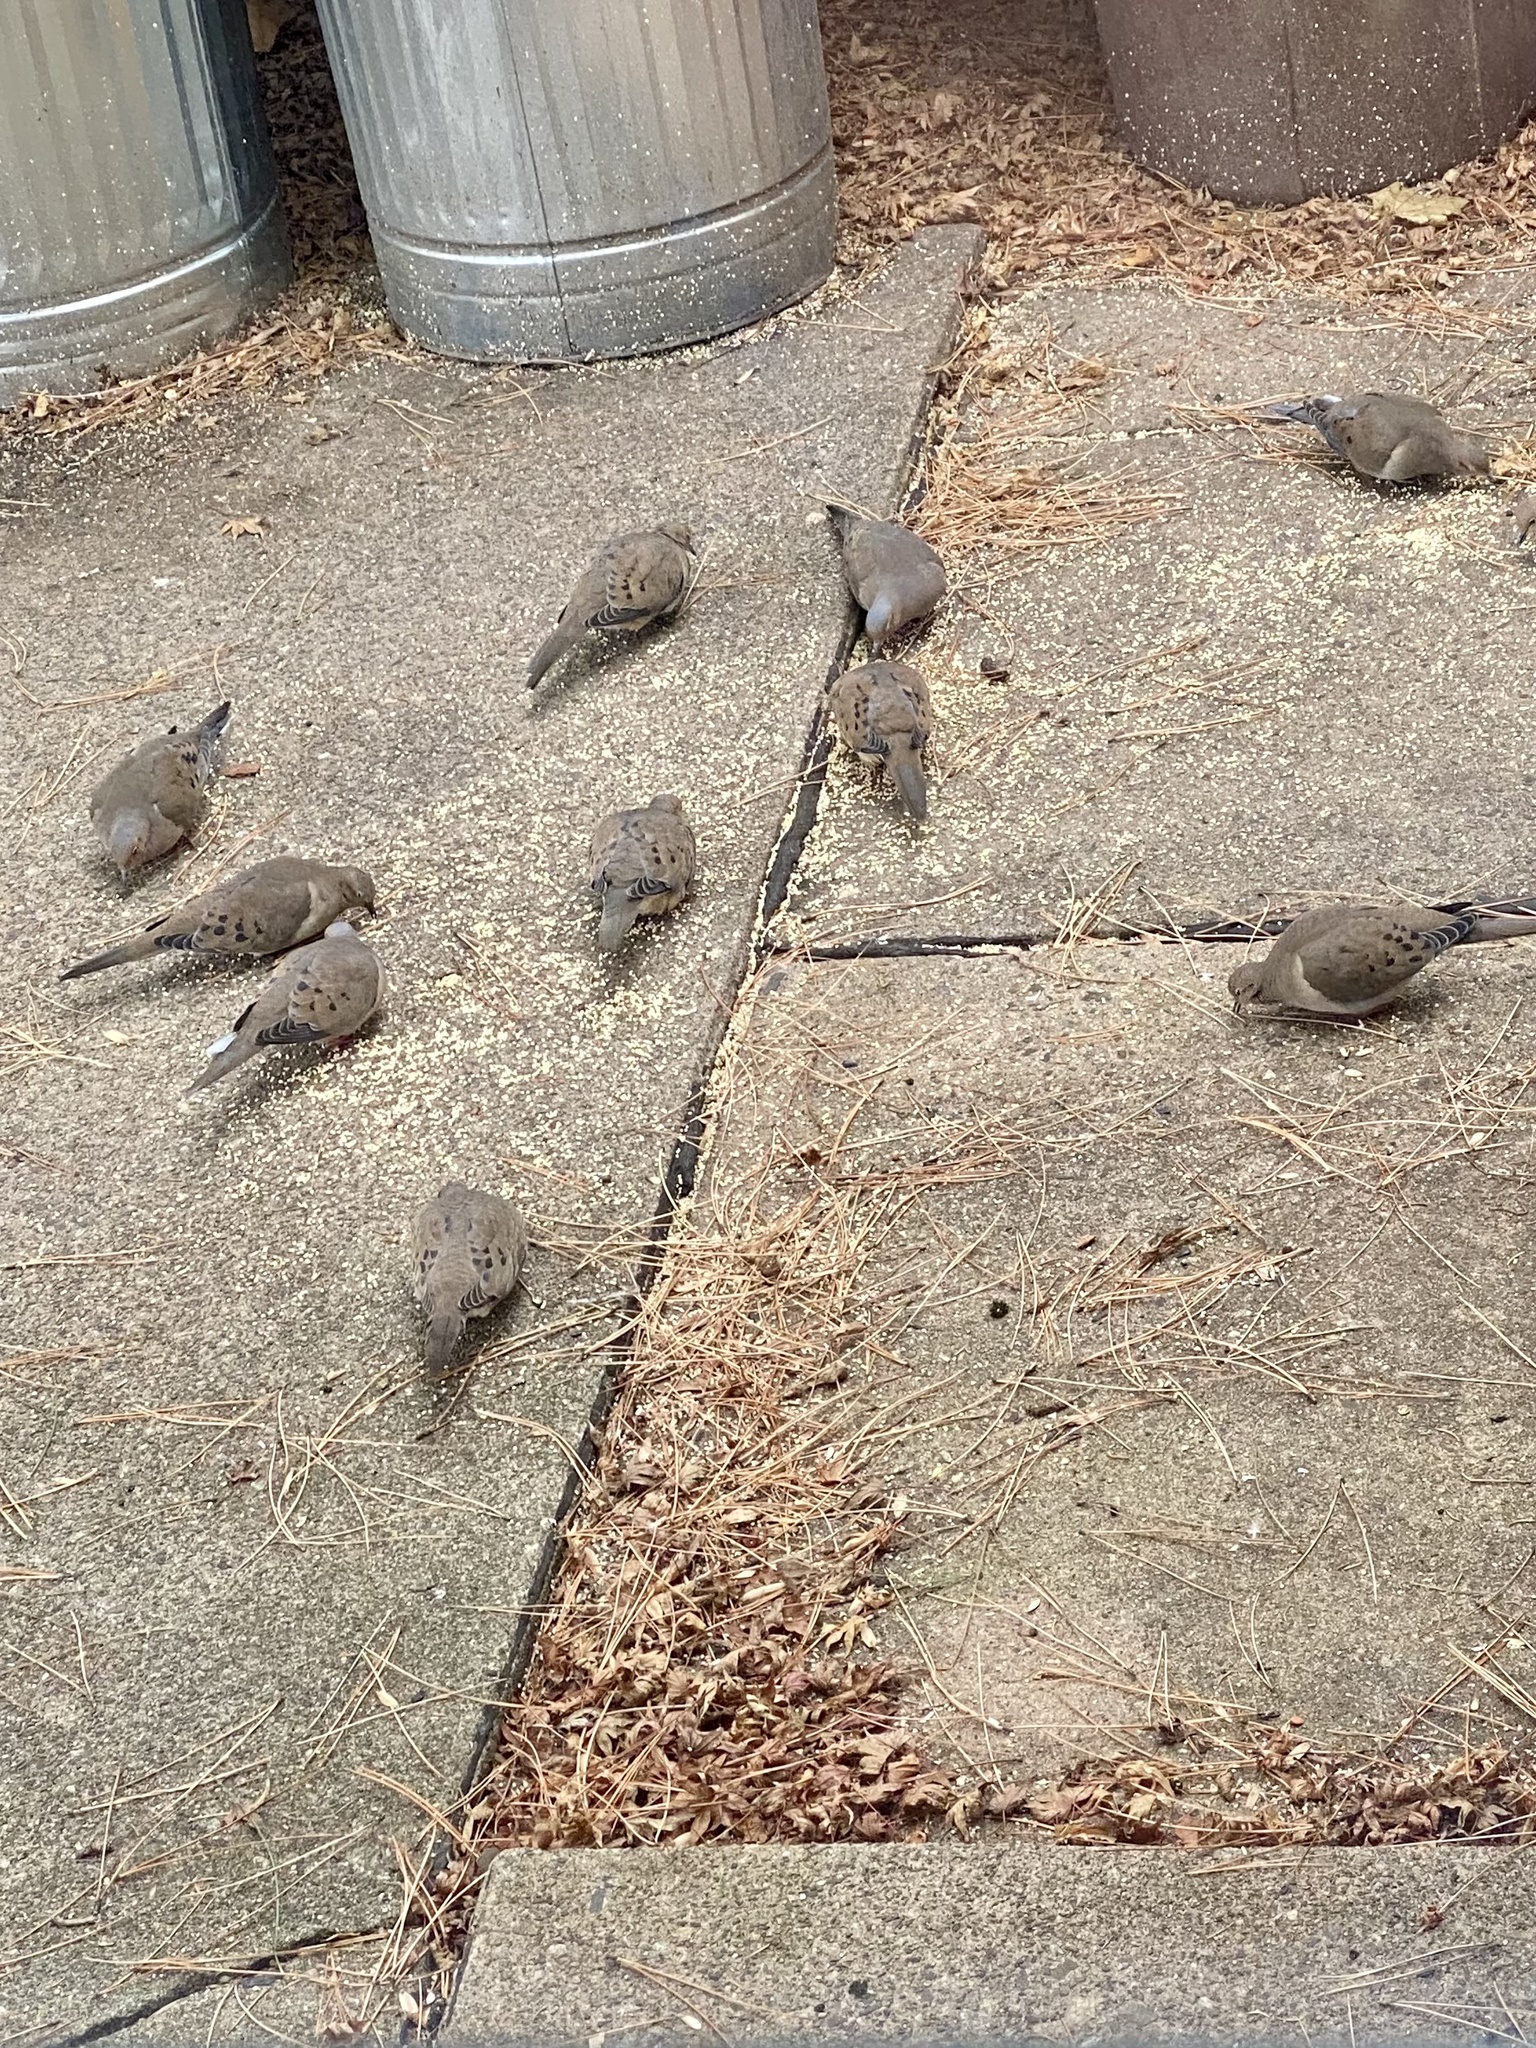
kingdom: Animalia
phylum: Chordata
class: Aves
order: Columbiformes
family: Columbidae
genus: Zenaida
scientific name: Zenaida macroura
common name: Mourning dove
